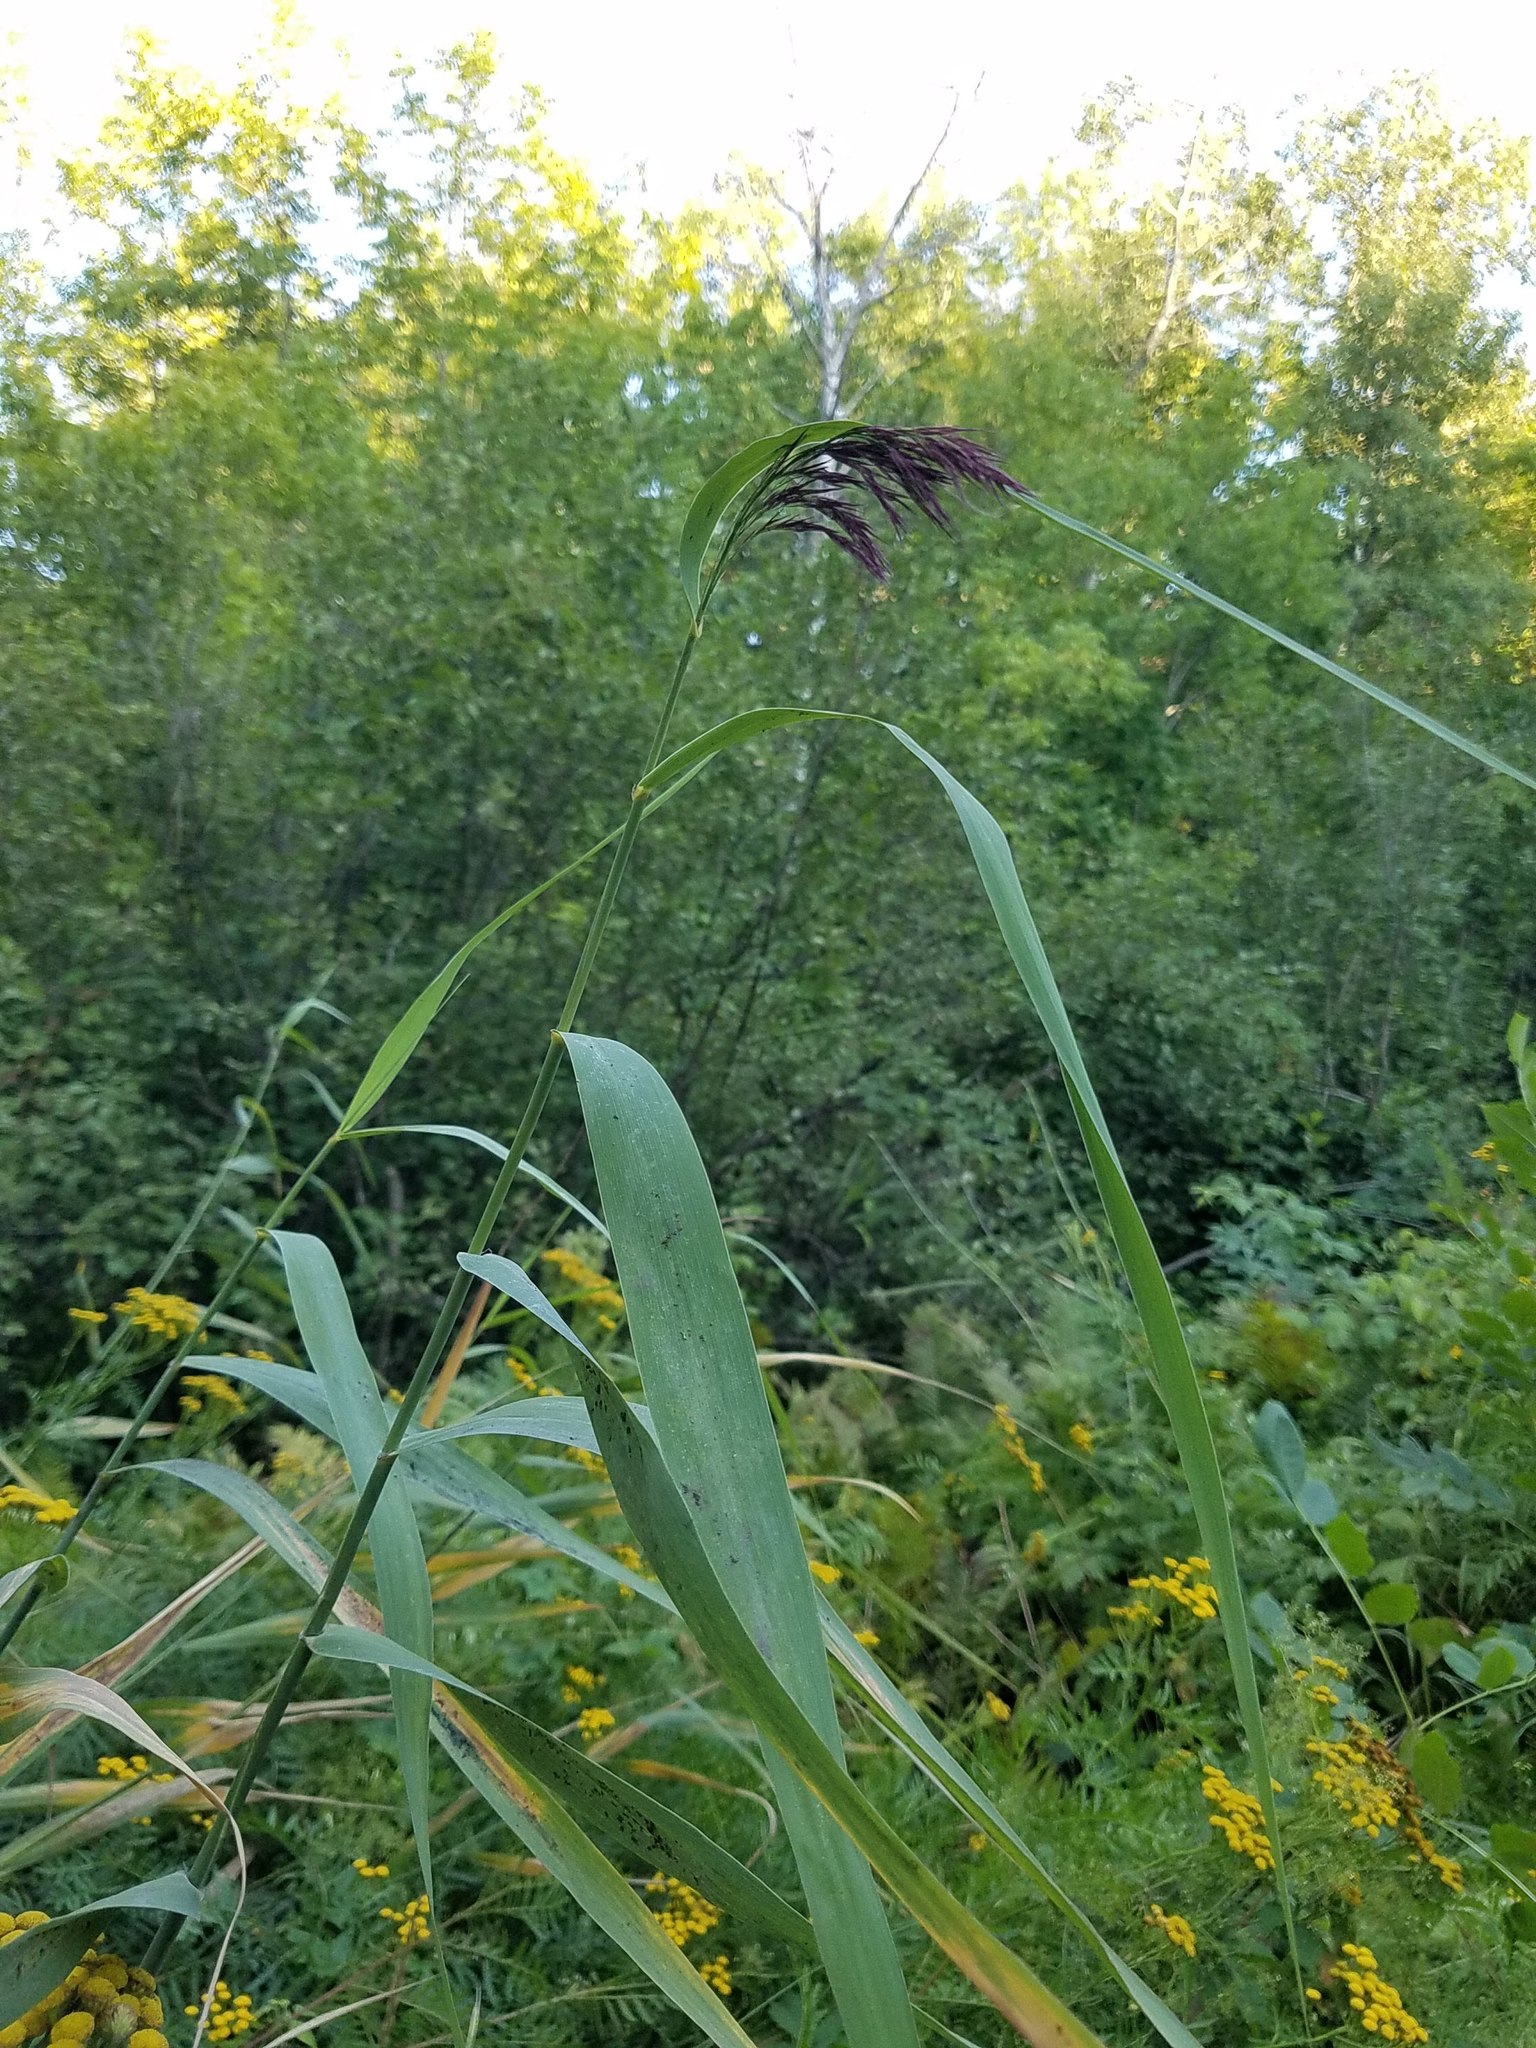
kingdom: Plantae
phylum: Tracheophyta
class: Liliopsida
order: Poales
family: Poaceae
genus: Phragmites
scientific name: Phragmites australis
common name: Common reed
